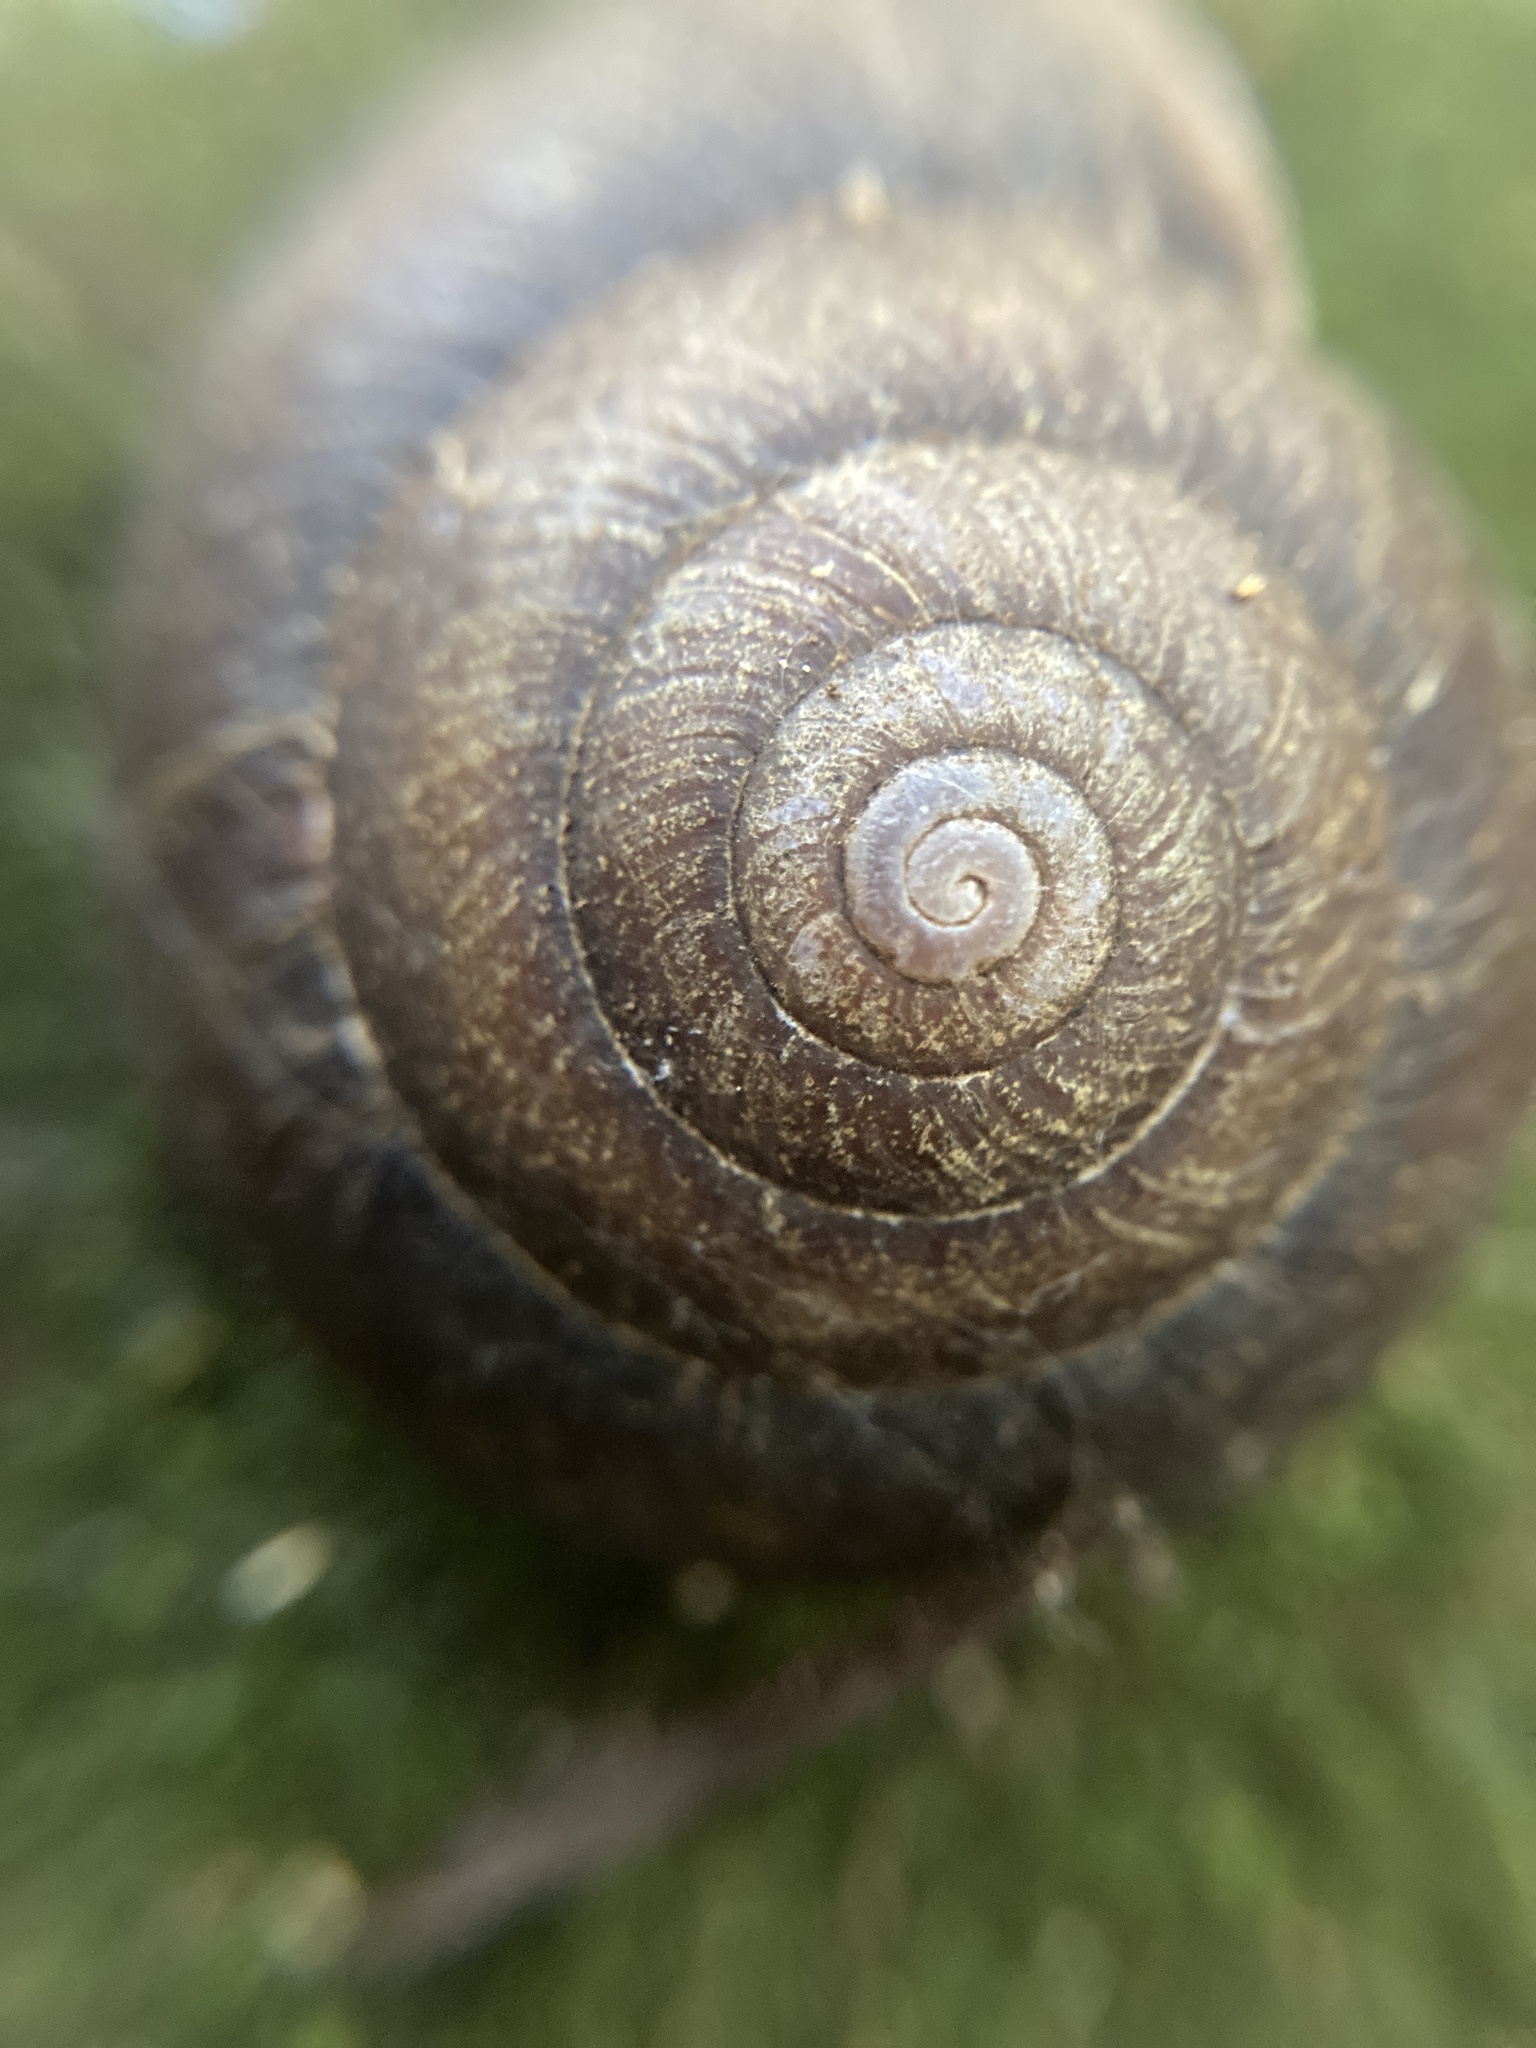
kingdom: Animalia
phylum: Mollusca
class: Gastropoda
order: Stylommatophora
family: Camaenidae
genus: Sauroconcha
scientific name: Sauroconcha gulosa
